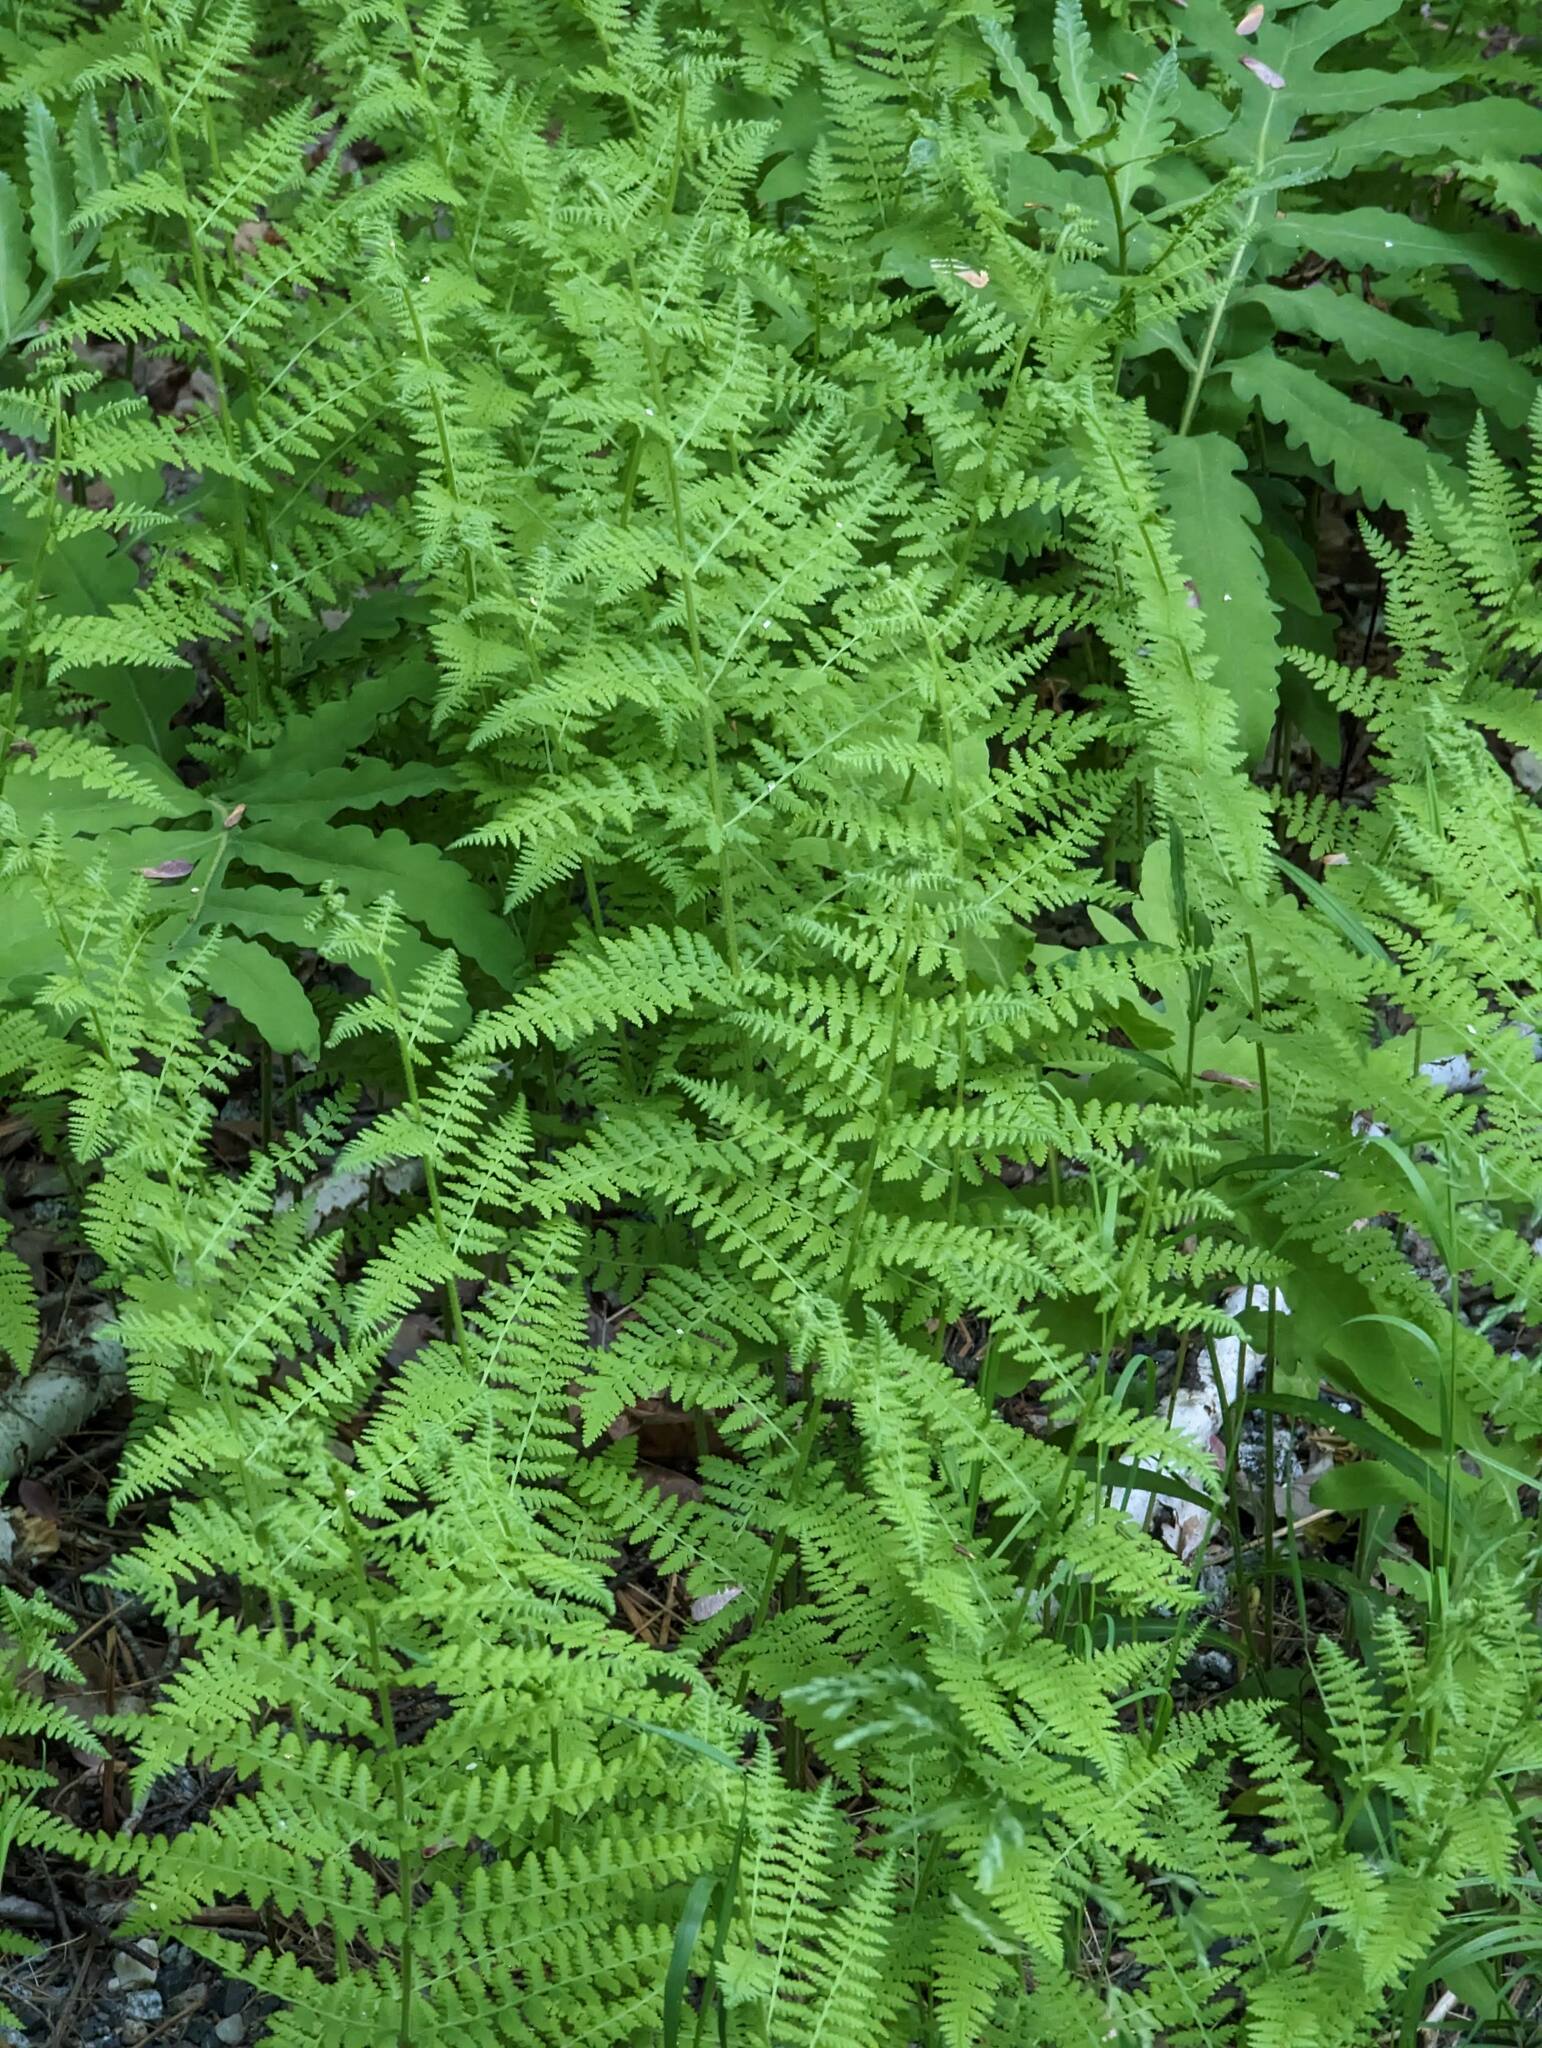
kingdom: Plantae
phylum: Tracheophyta
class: Polypodiopsida
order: Polypodiales
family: Dennstaedtiaceae
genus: Sitobolium
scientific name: Sitobolium punctilobum
